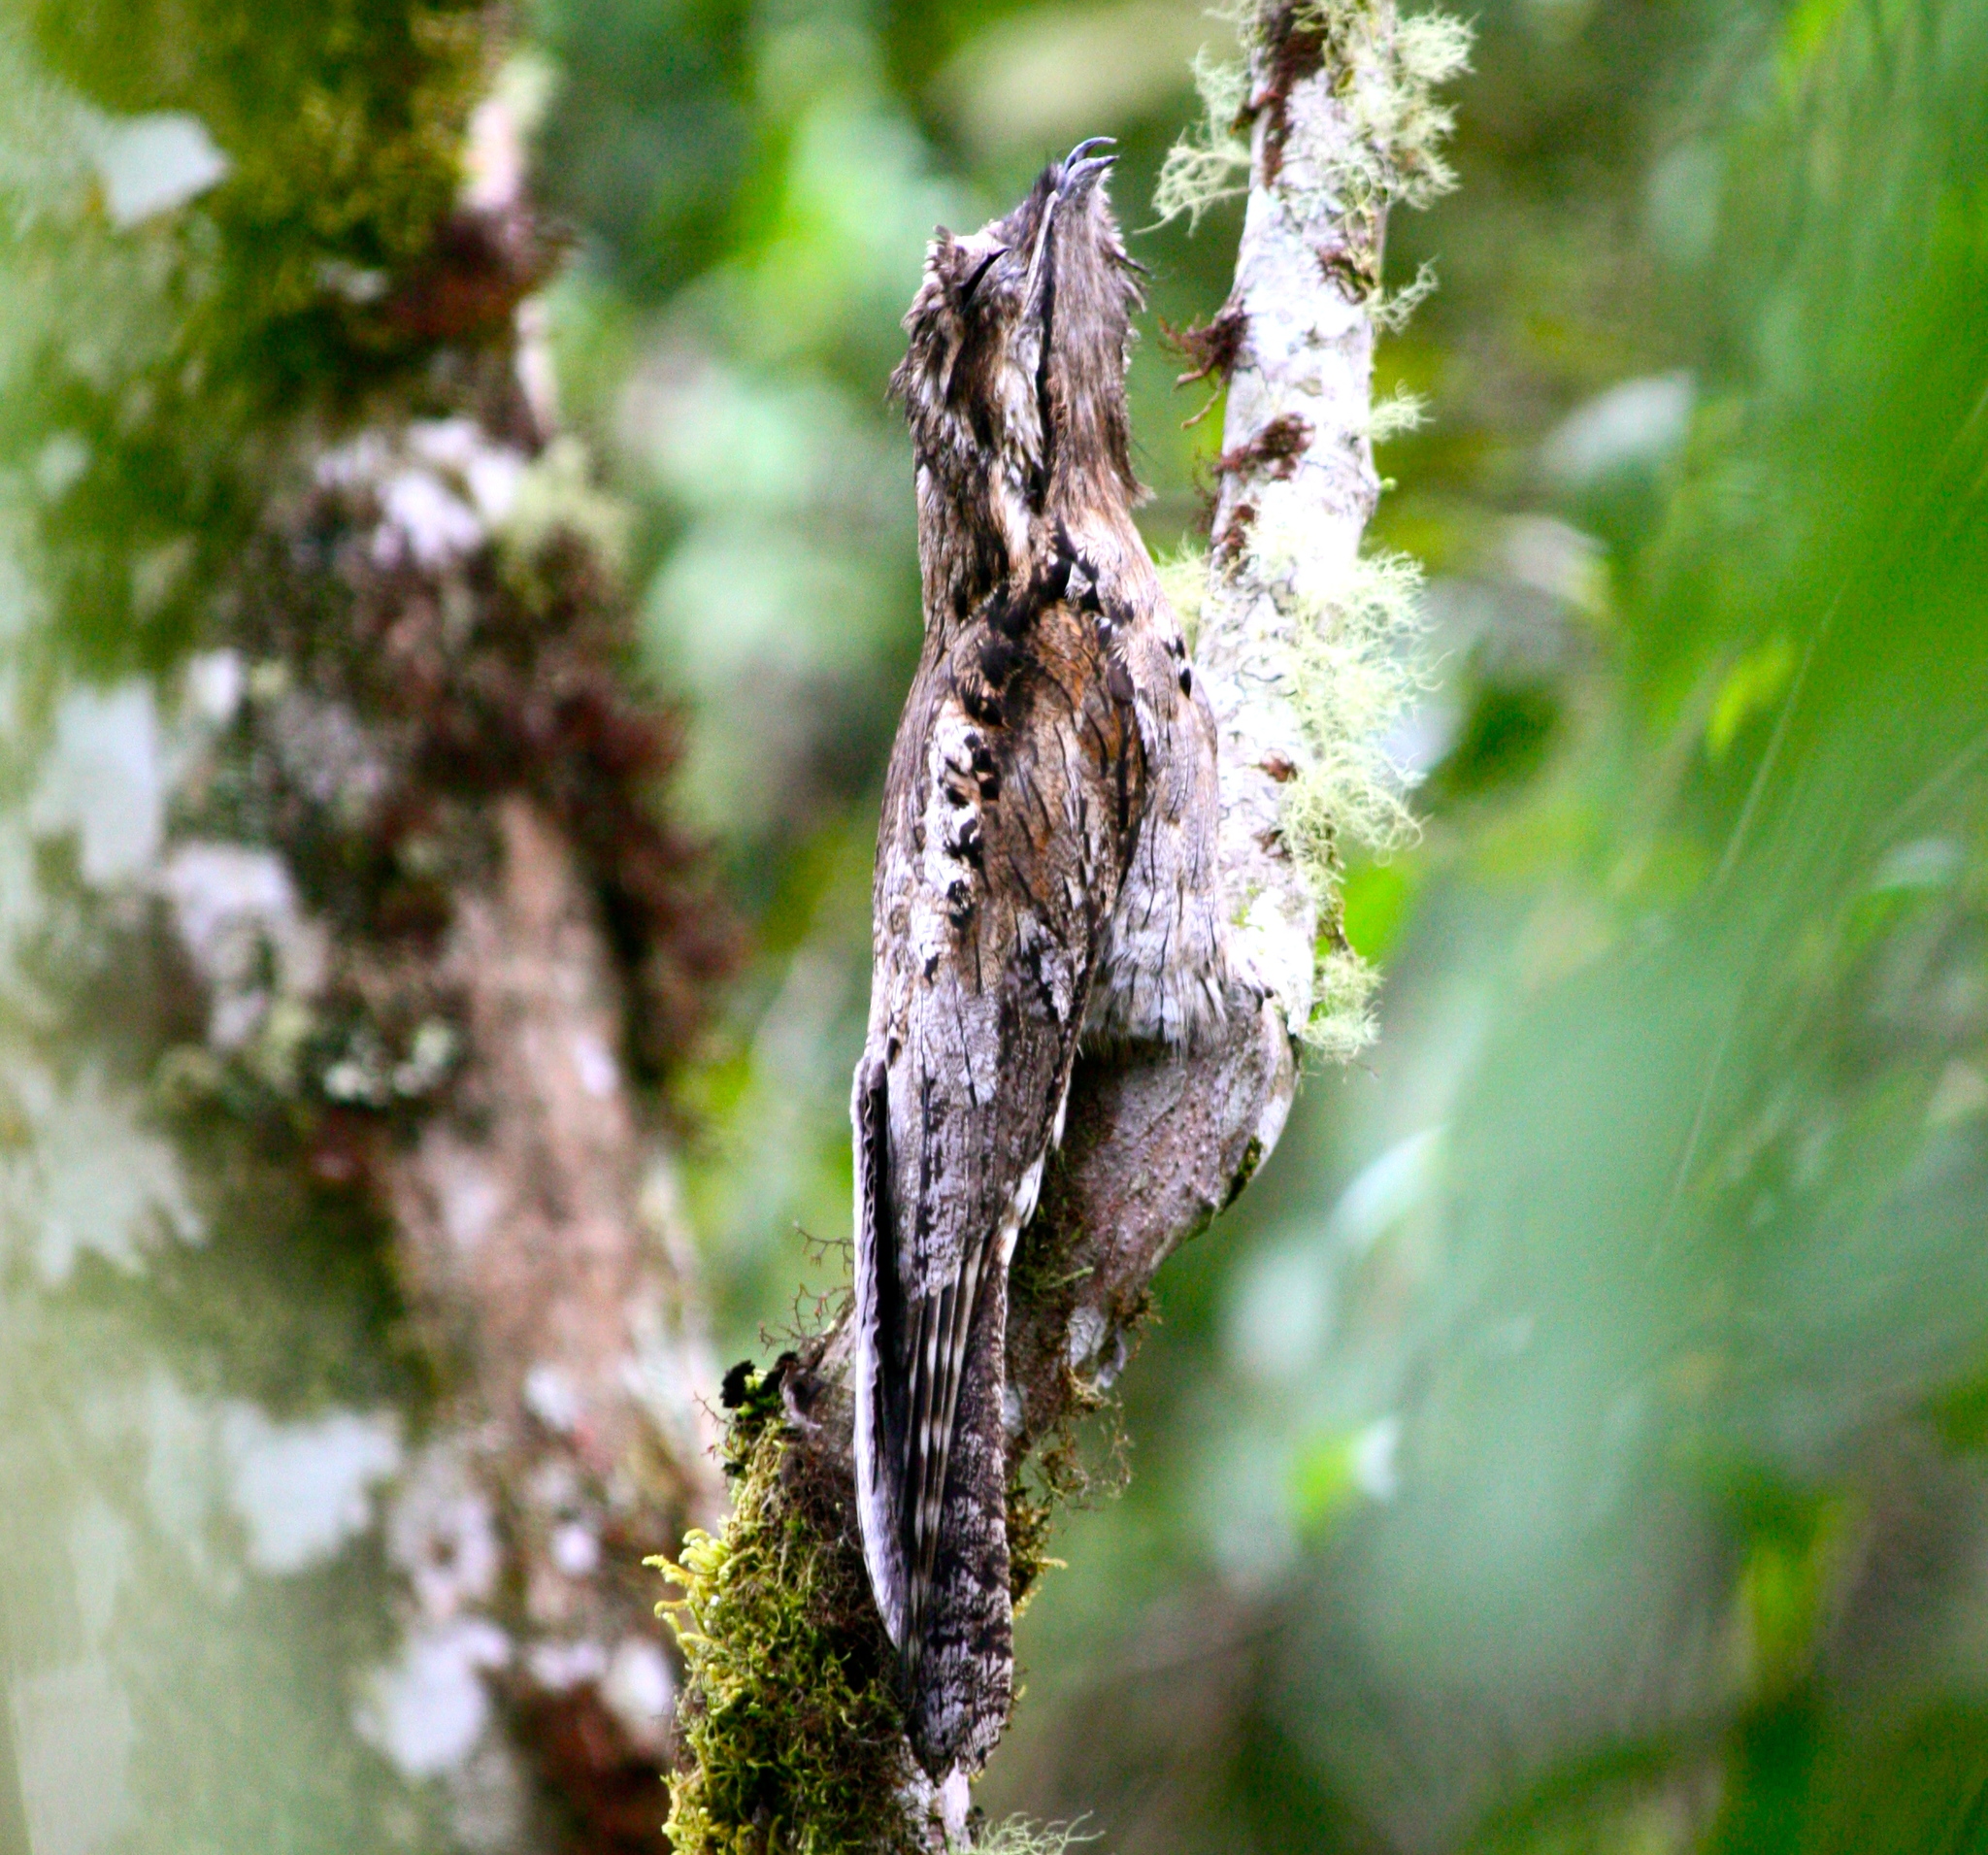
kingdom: Animalia
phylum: Chordata
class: Aves
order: Nyctibiiformes
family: Nyctibiidae
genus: Nyctibius
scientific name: Nyctibius griseus
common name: Common potoo
